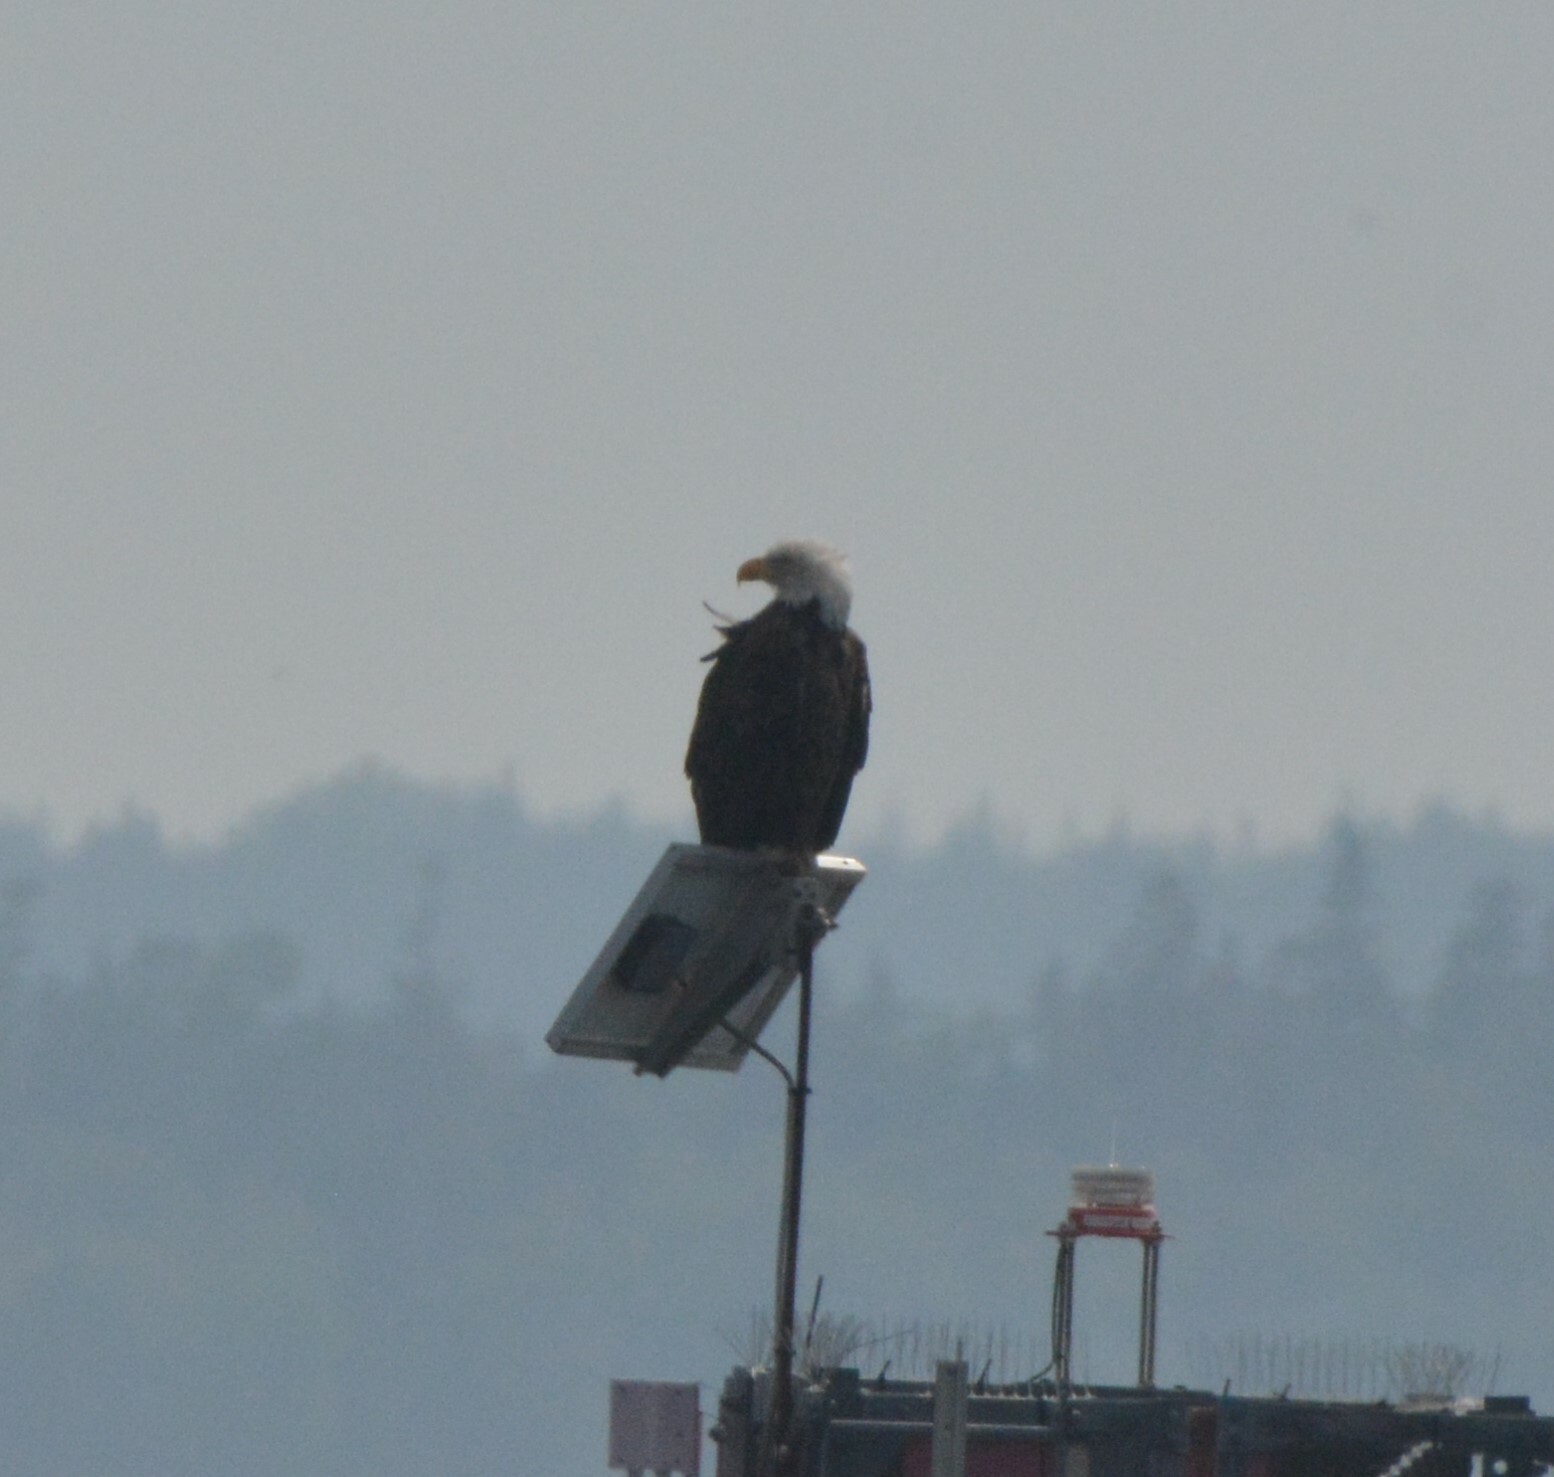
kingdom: Animalia
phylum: Chordata
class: Aves
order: Accipitriformes
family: Accipitridae
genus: Haliaeetus
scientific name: Haliaeetus leucocephalus
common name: Bald eagle
